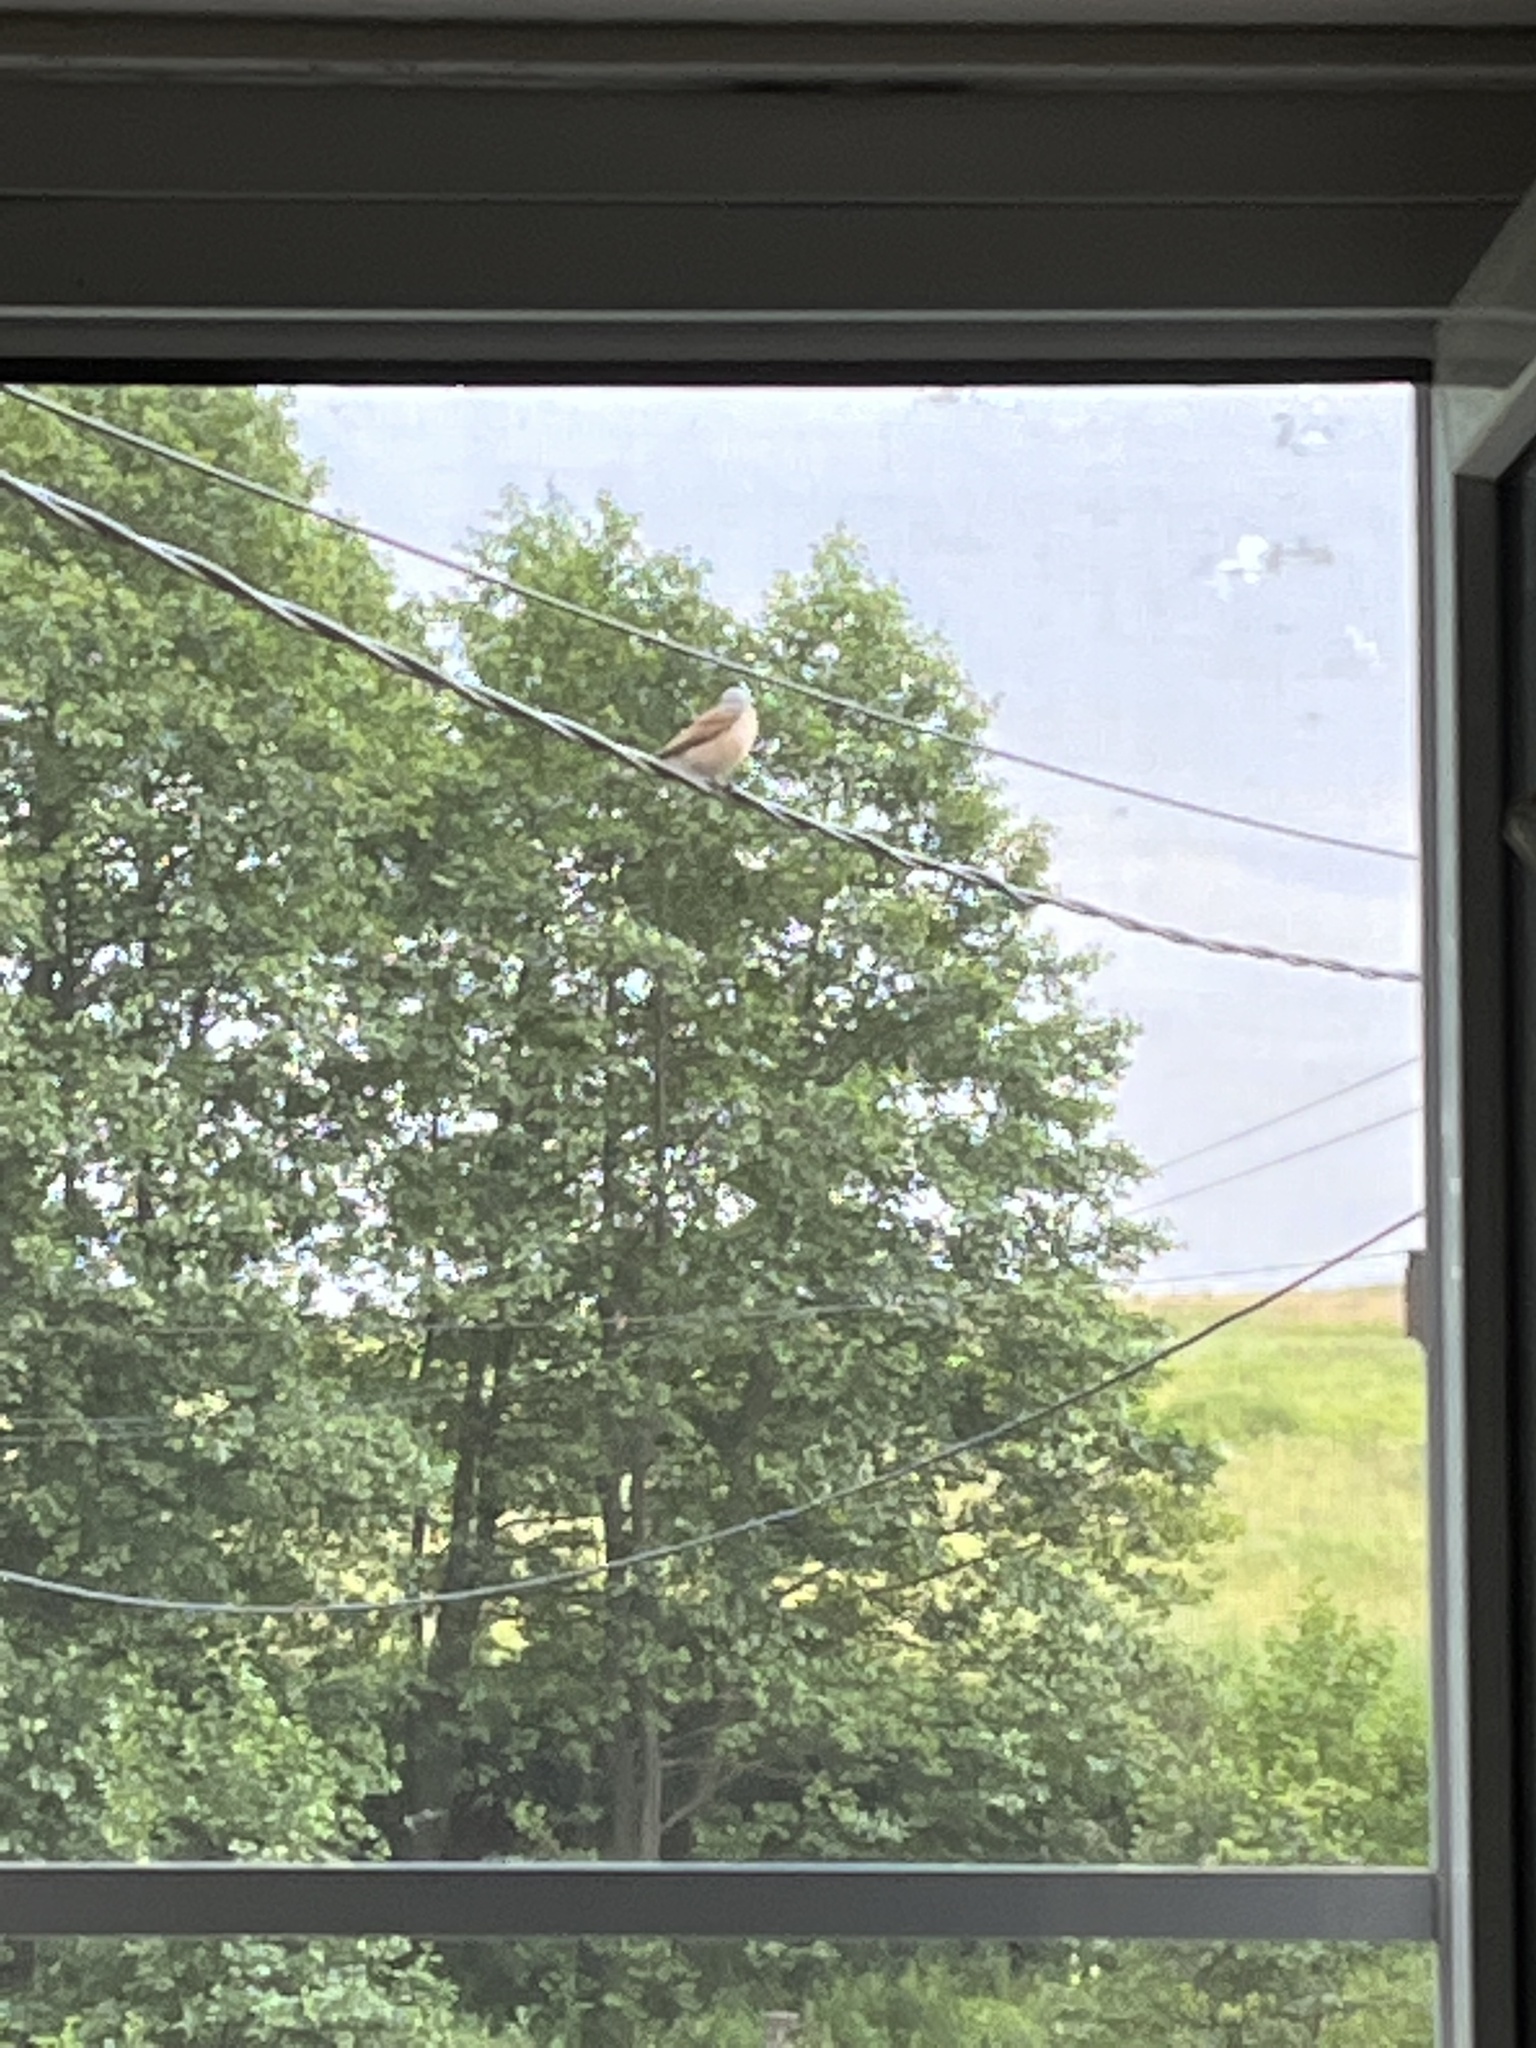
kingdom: Animalia
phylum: Chordata
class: Aves
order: Passeriformes
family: Laniidae
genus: Lanius
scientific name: Lanius collurio
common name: Red-backed shrike
